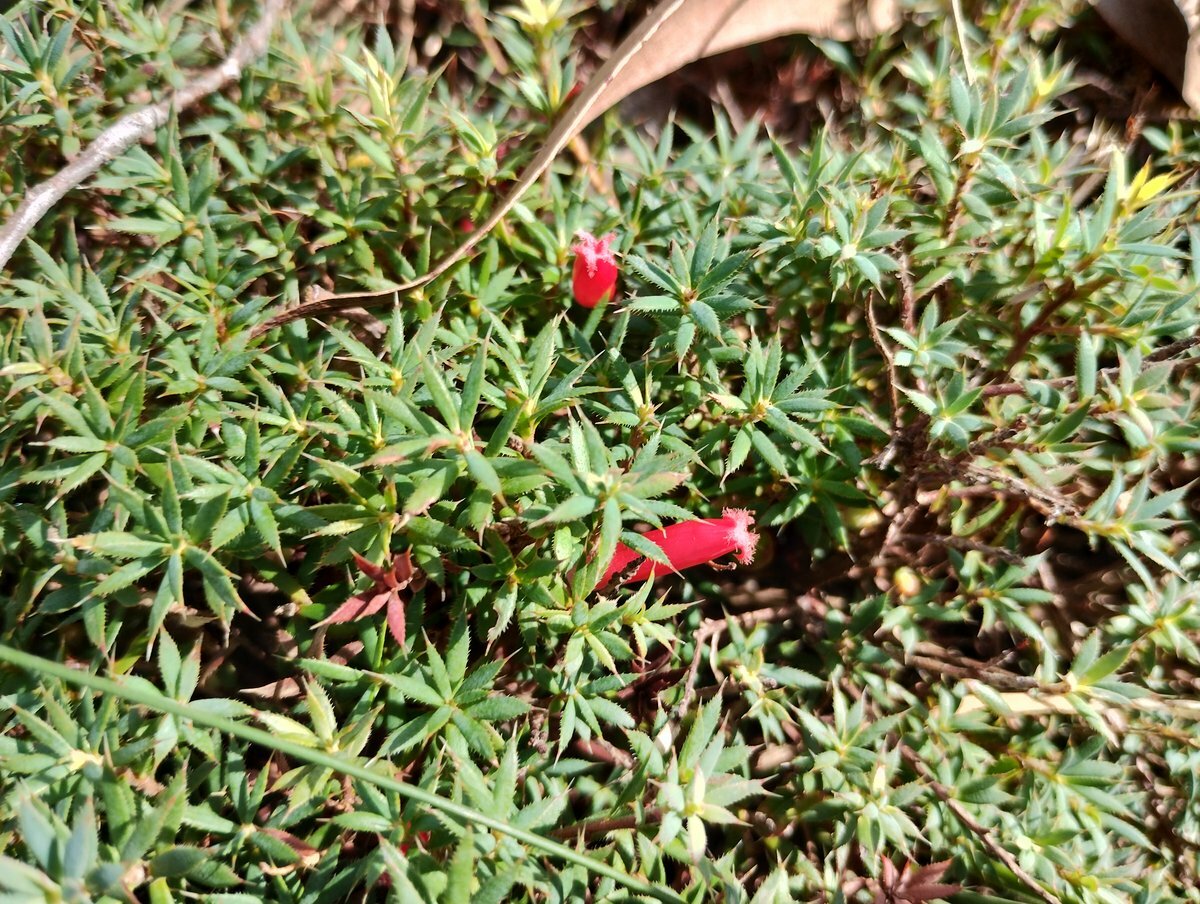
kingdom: Plantae
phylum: Tracheophyta
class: Magnoliopsida
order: Ericales
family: Ericaceae
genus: Styphelia
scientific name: Styphelia humifusa
